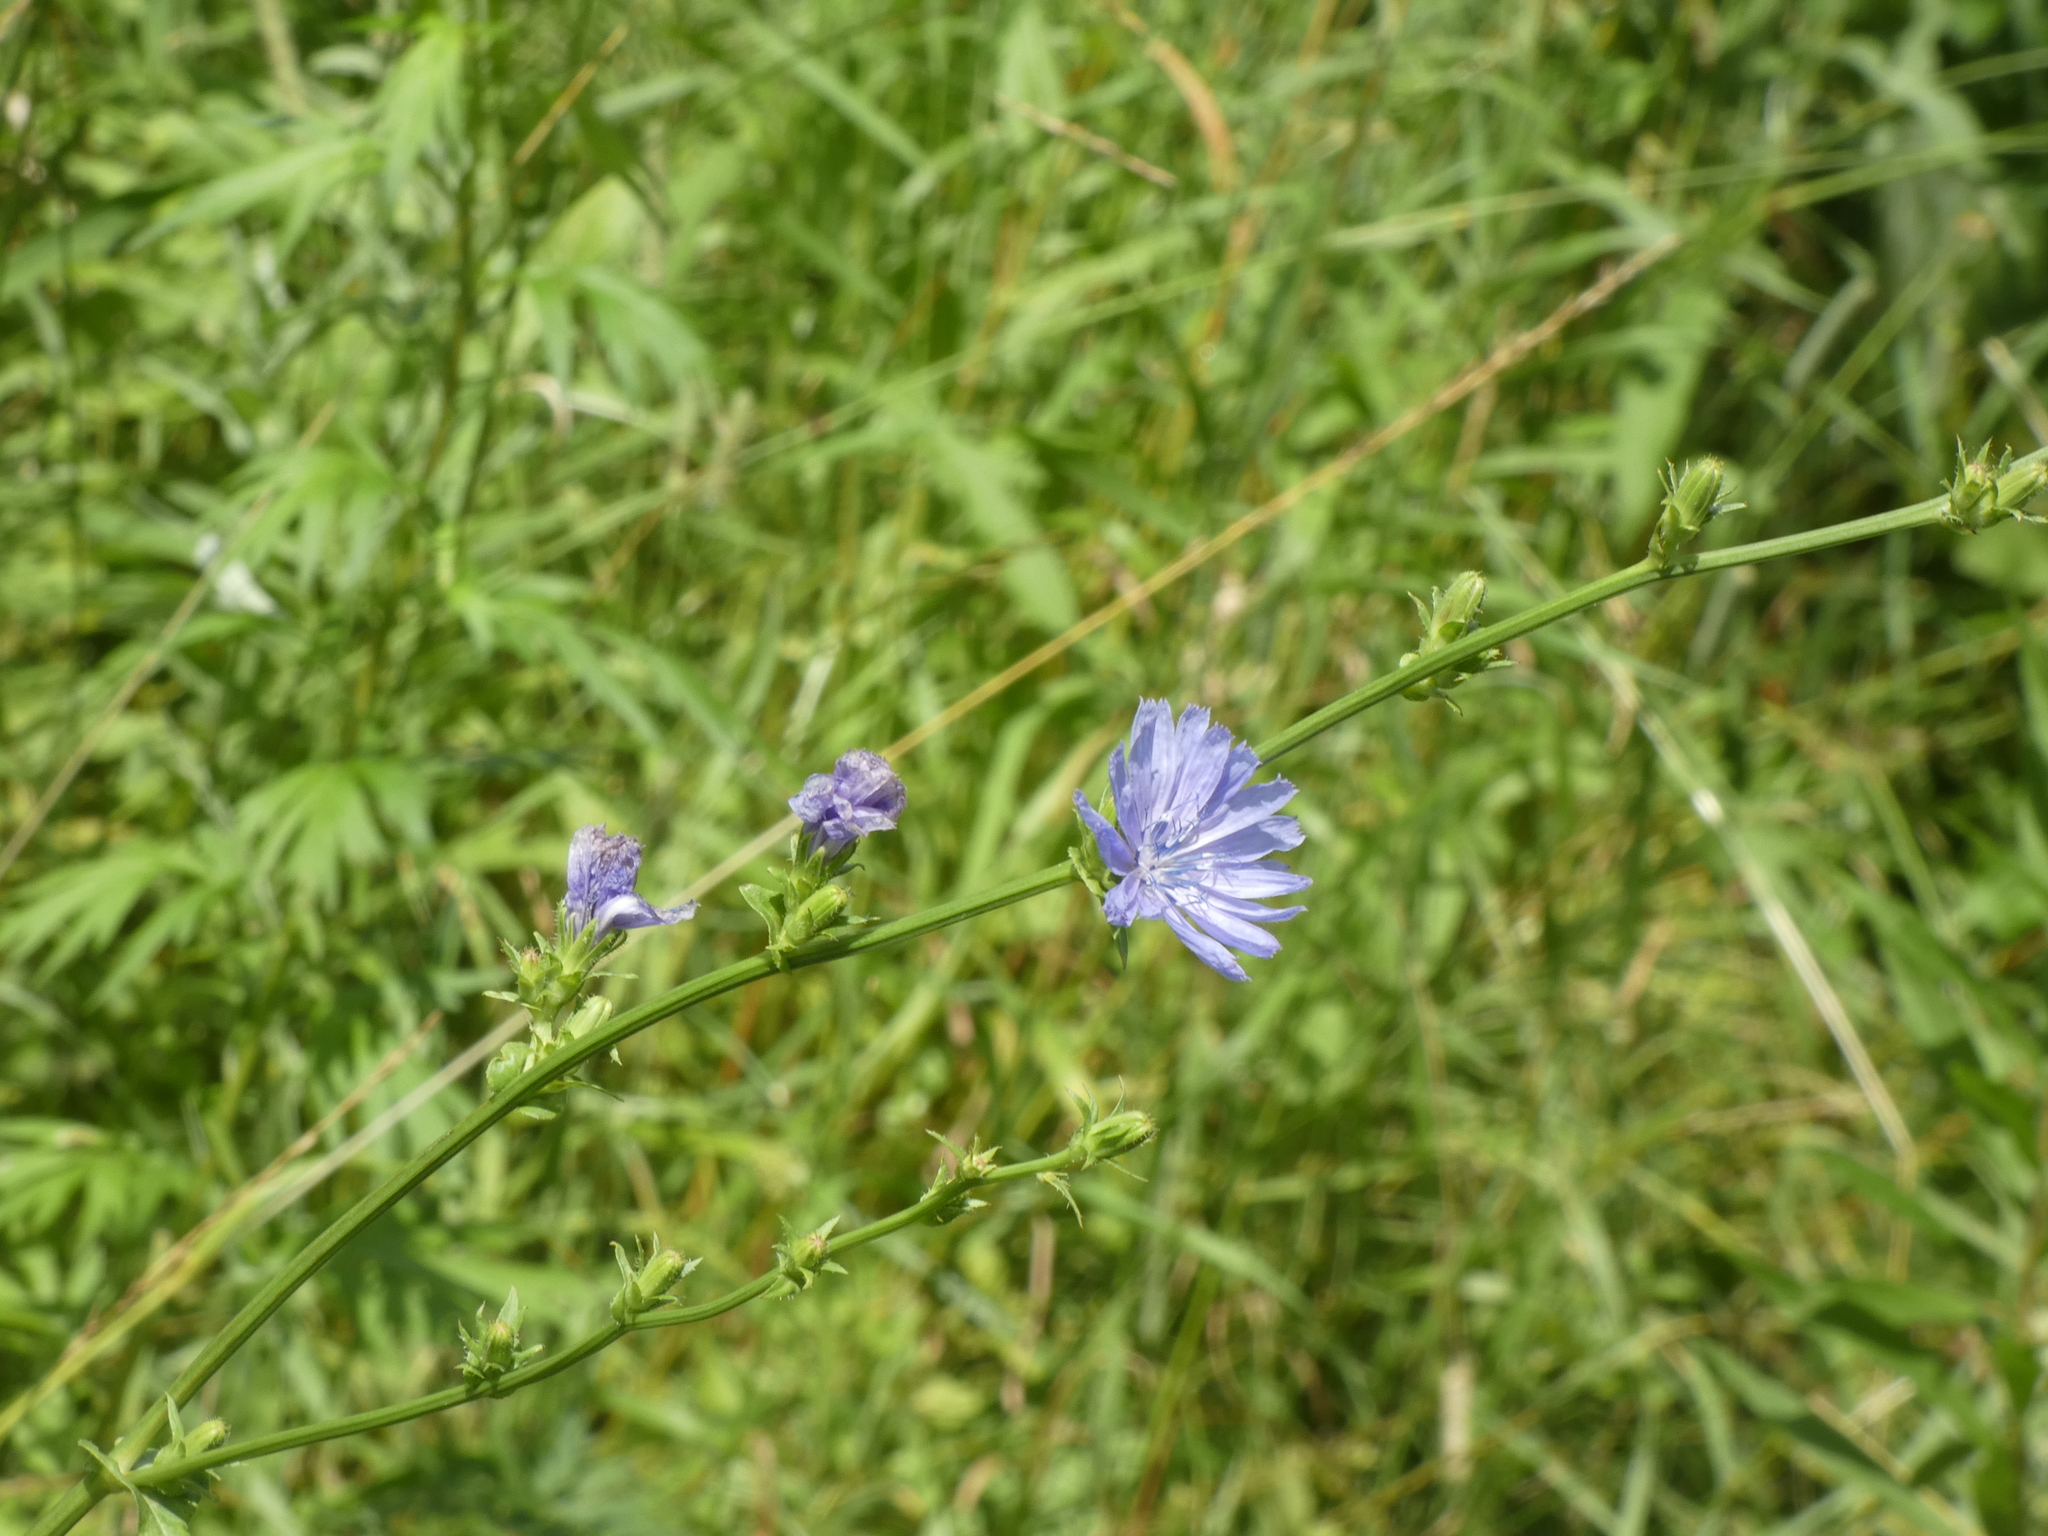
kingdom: Plantae
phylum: Tracheophyta
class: Magnoliopsida
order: Asterales
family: Asteraceae
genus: Cichorium
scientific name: Cichorium intybus
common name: Chicory
